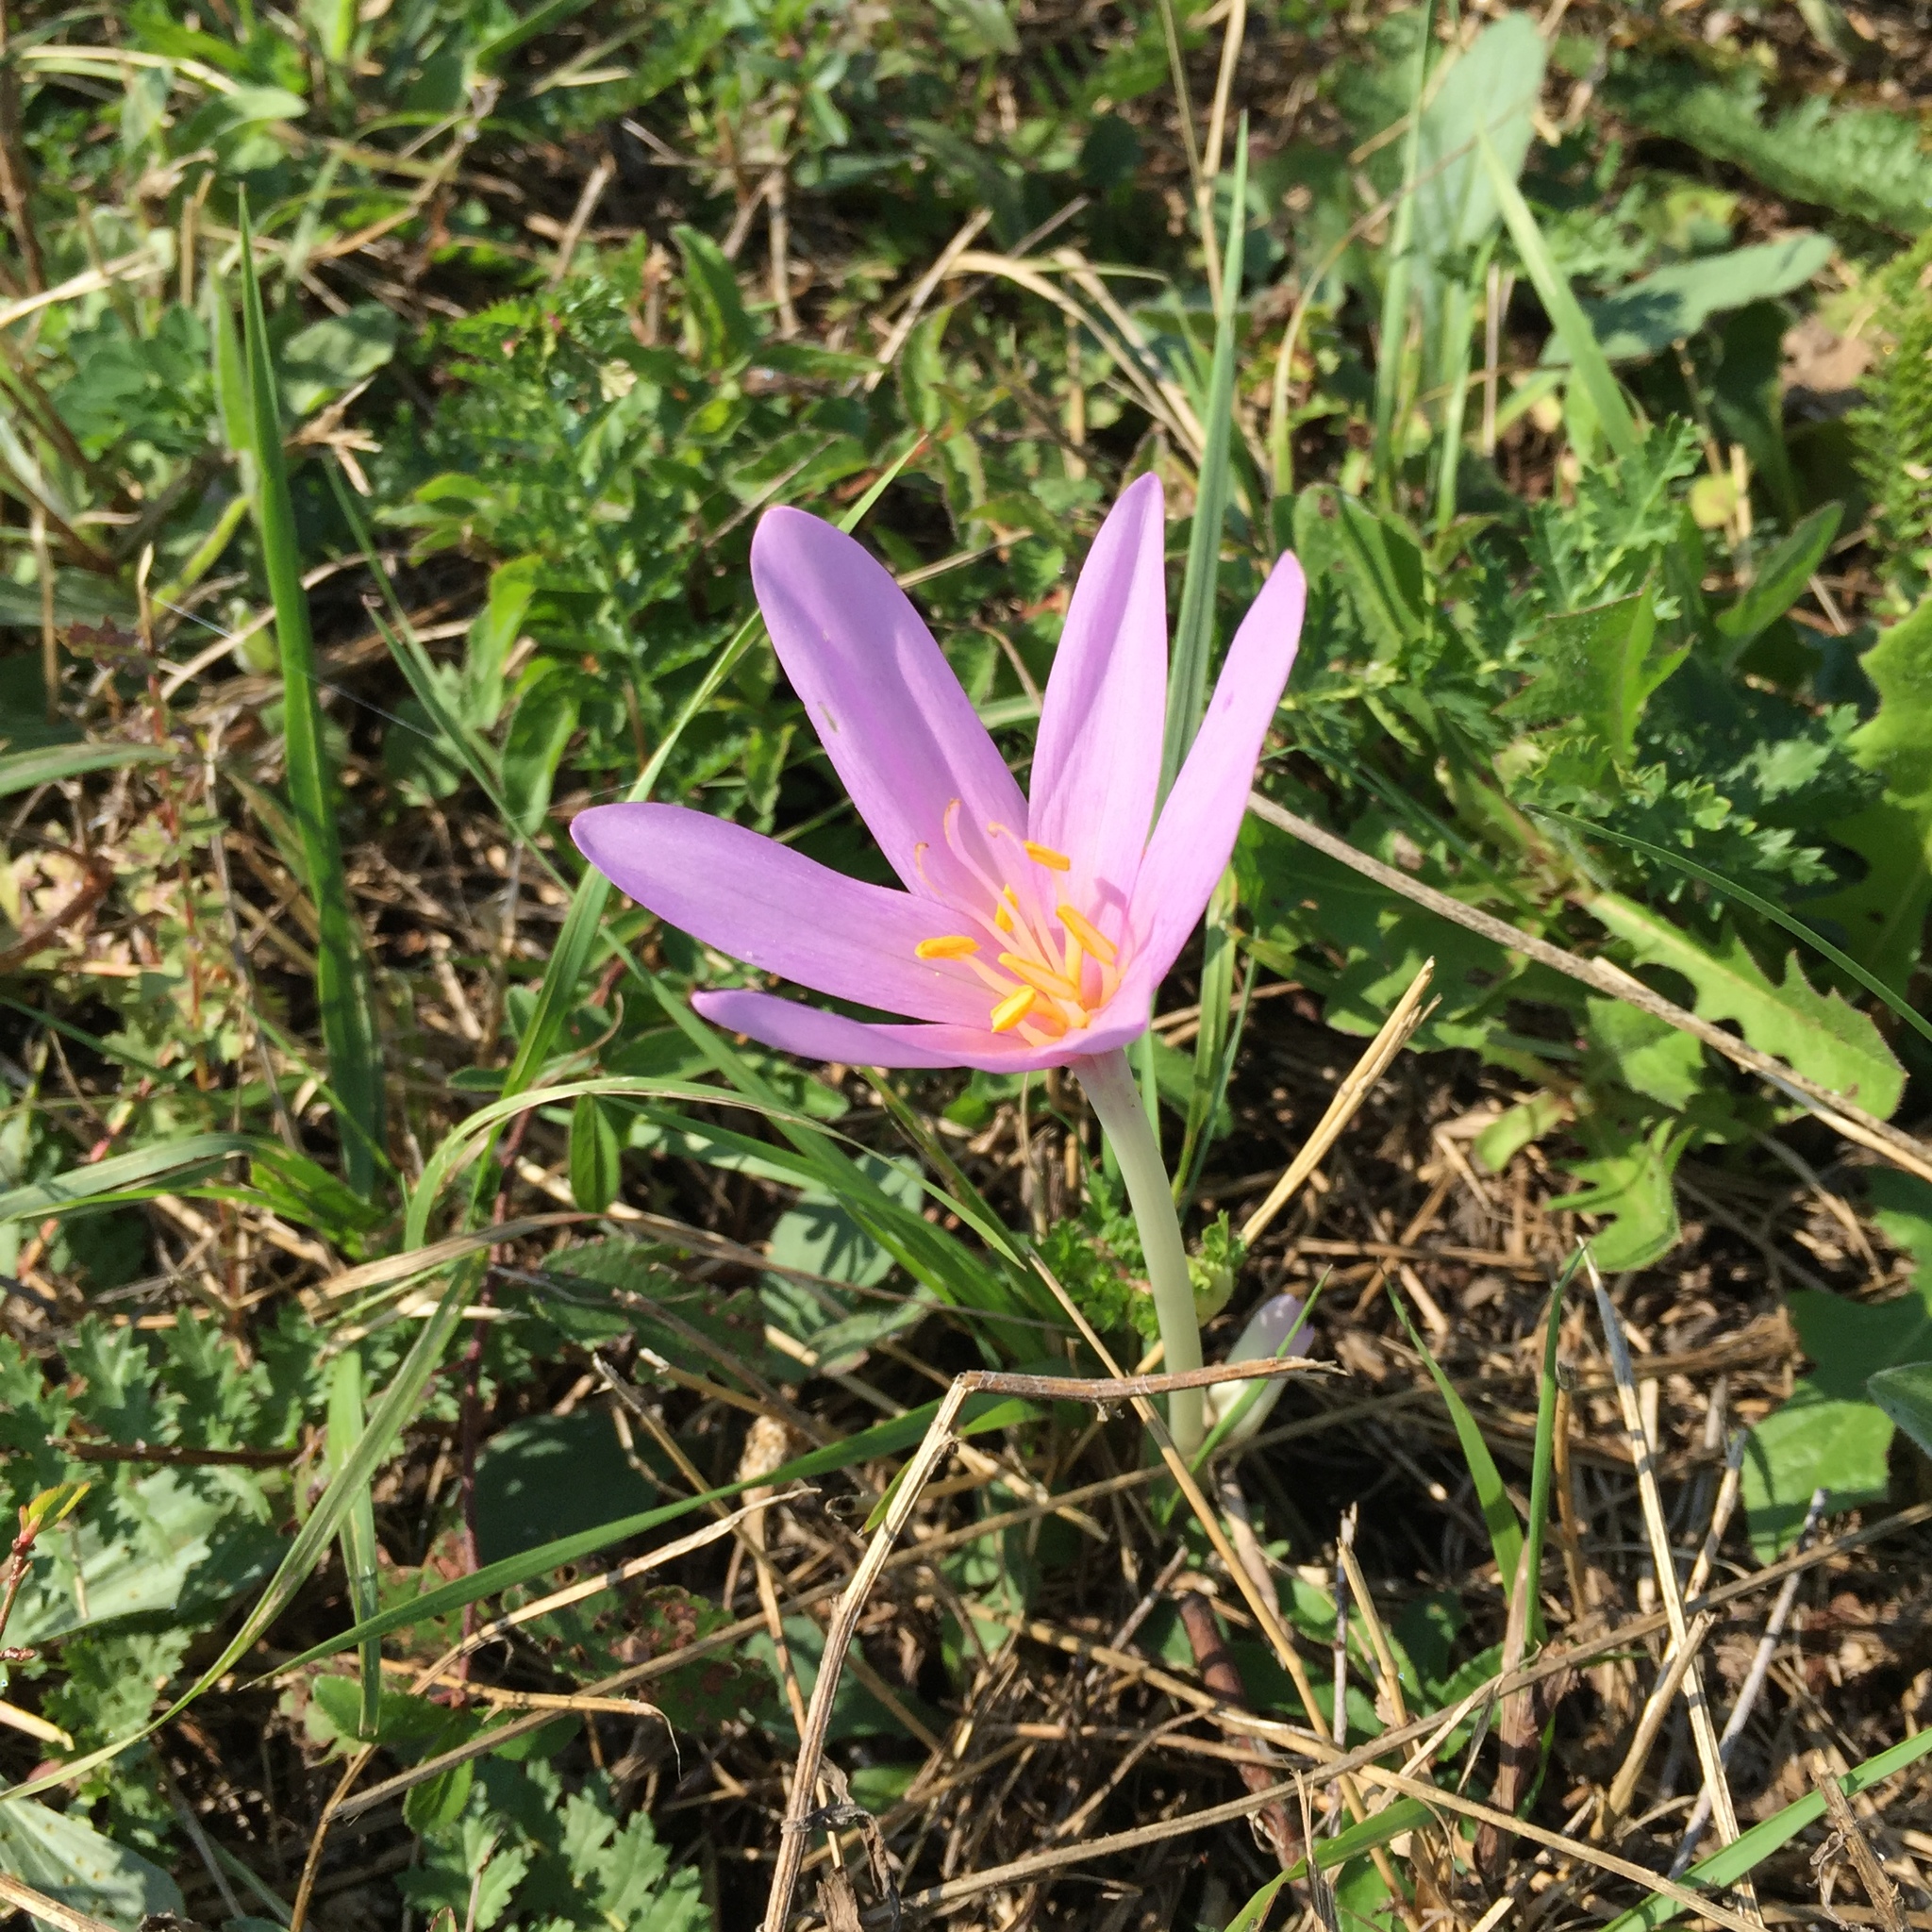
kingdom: Plantae
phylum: Tracheophyta
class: Liliopsida
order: Liliales
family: Colchicaceae
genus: Colchicum
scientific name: Colchicum autumnale
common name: Autumn crocus
